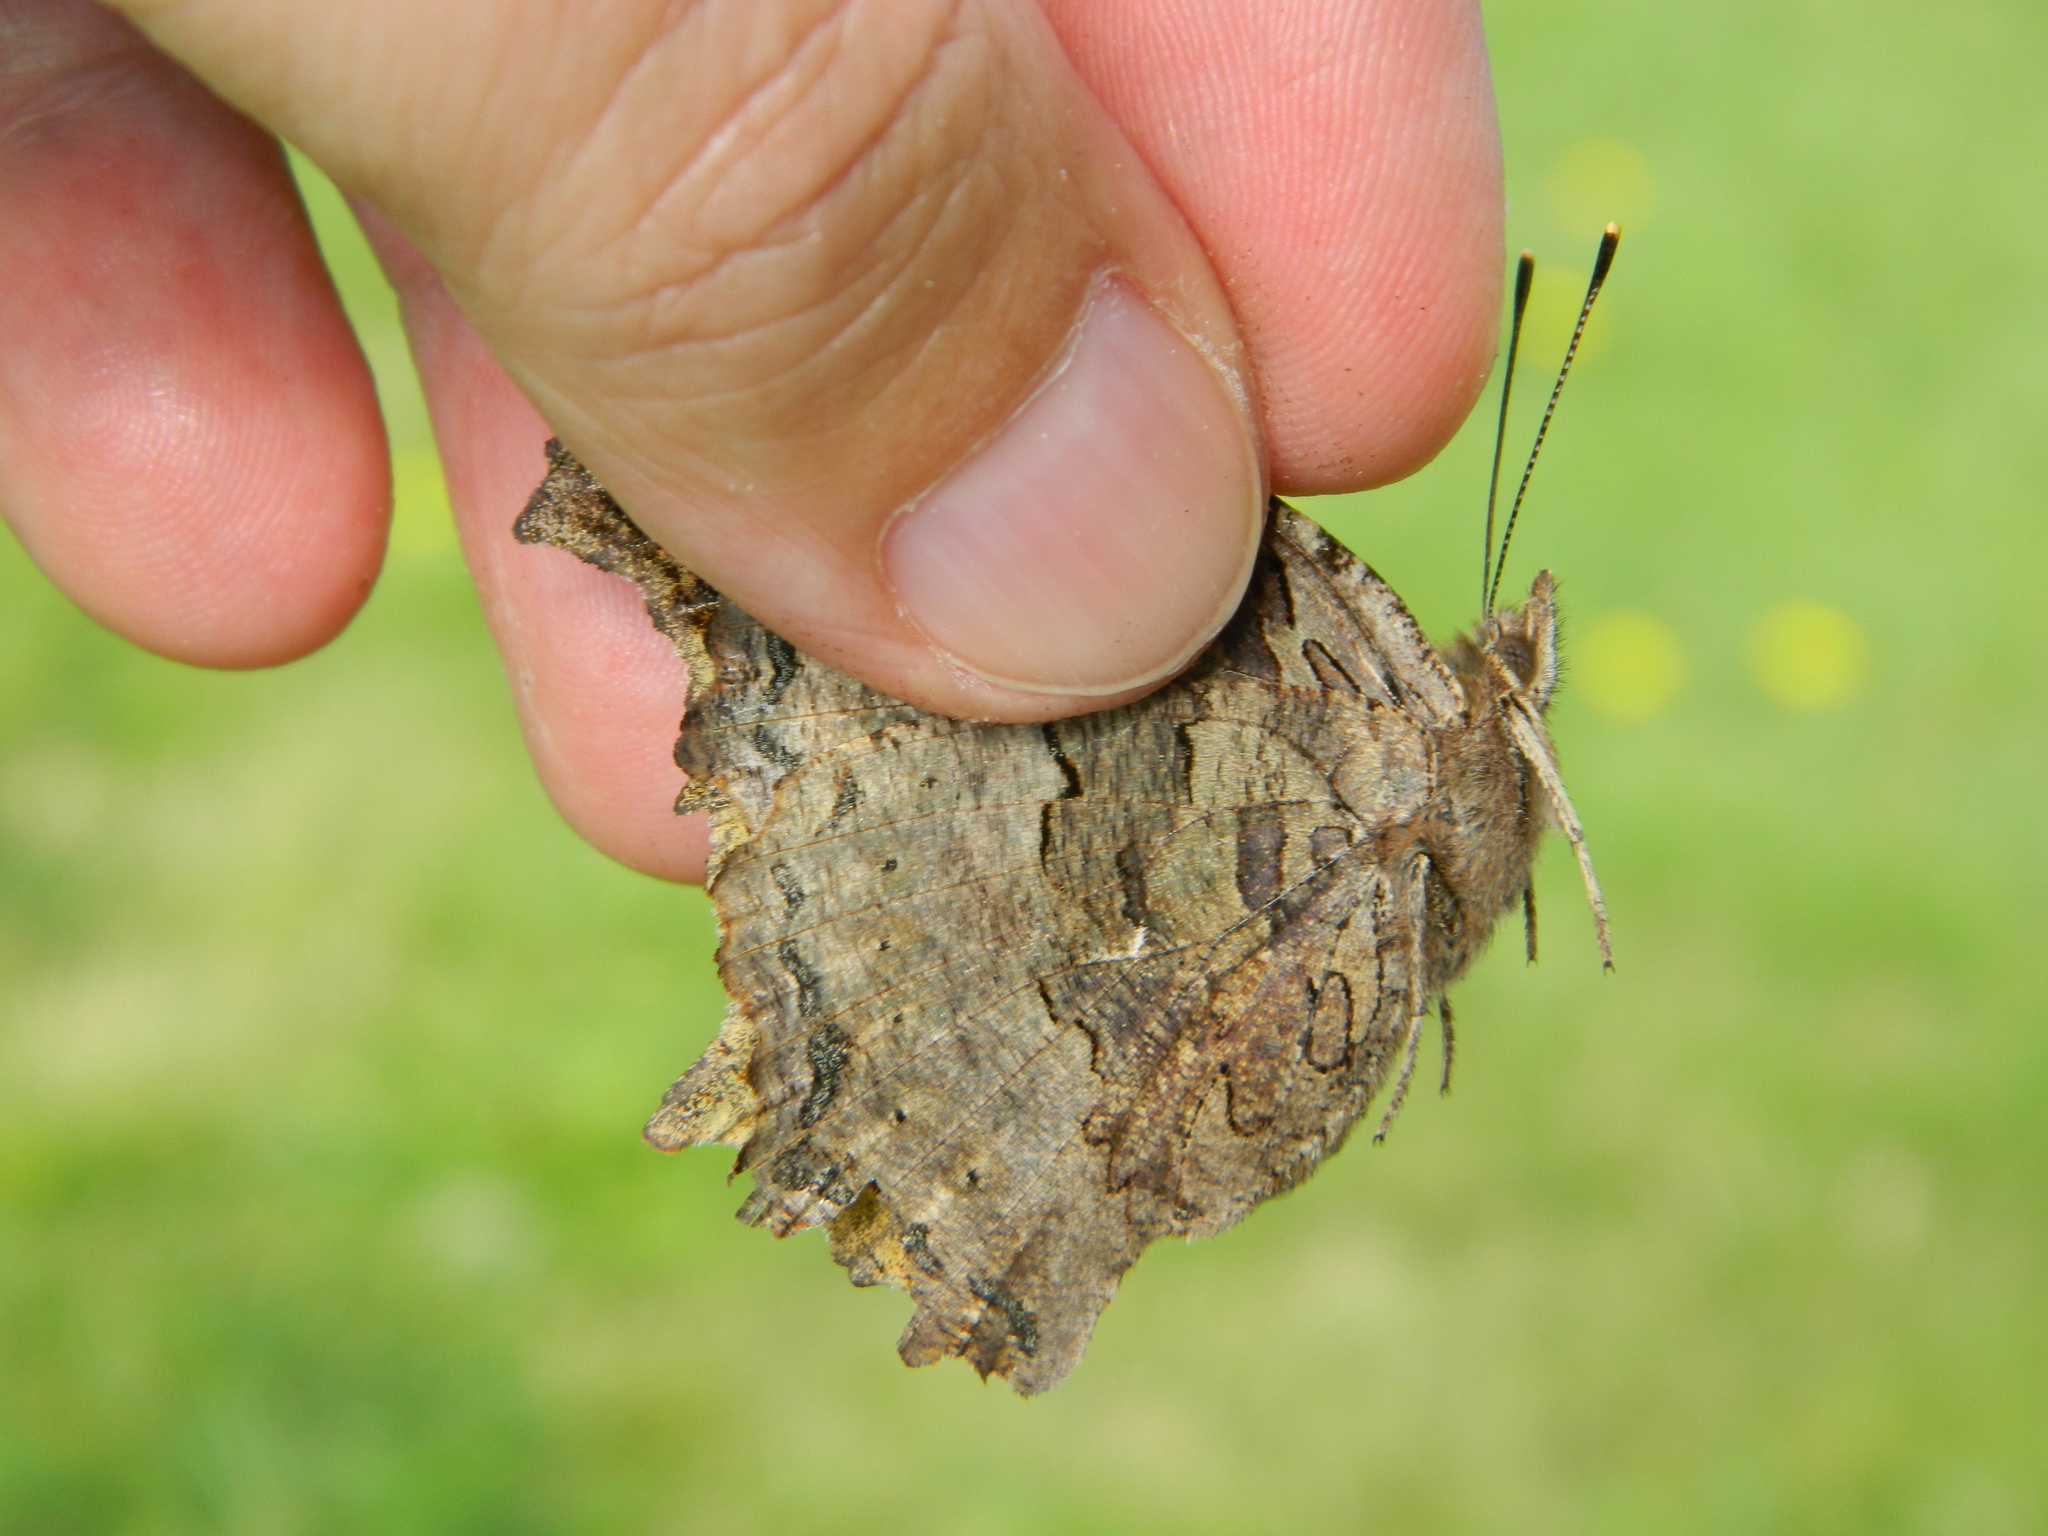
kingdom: Animalia
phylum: Arthropoda
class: Insecta
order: Lepidoptera
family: Nymphalidae
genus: Polygonia
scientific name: Polygonia vaualbum
